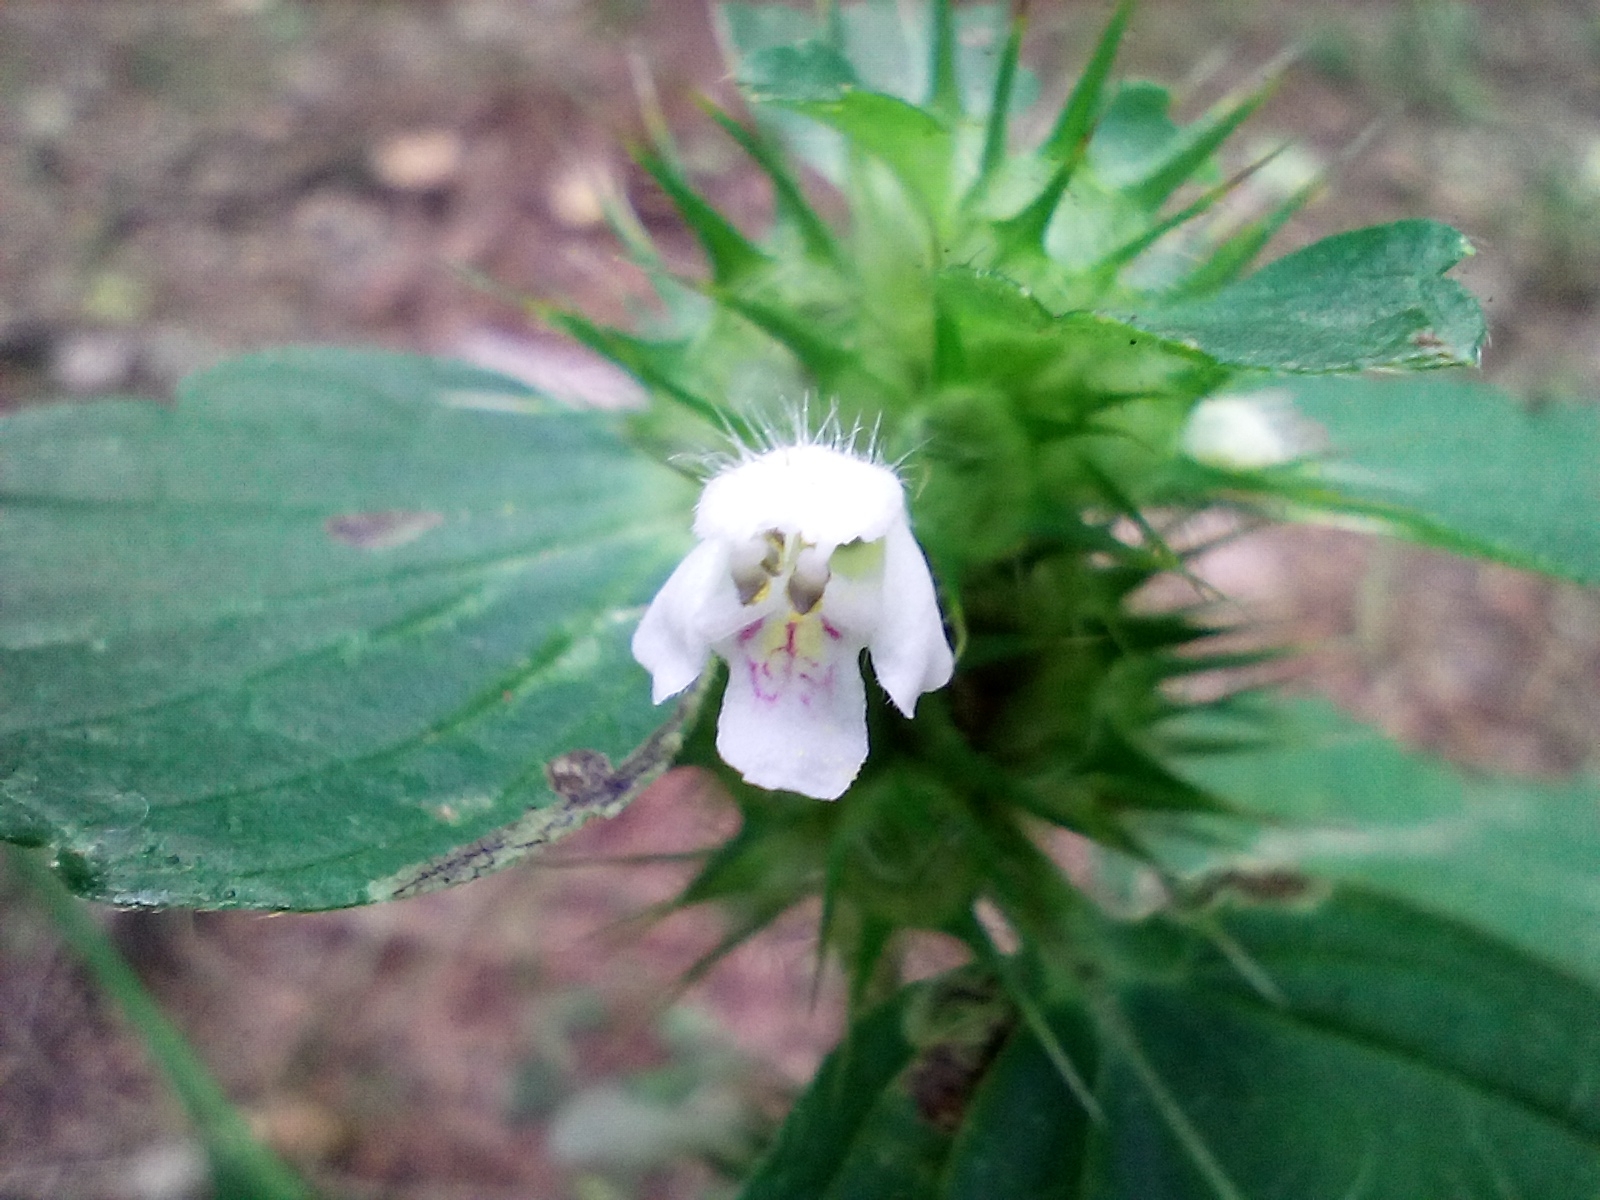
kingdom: Plantae
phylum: Tracheophyta
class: Magnoliopsida
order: Lamiales
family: Lamiaceae
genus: Galeopsis
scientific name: Galeopsis tetrahit
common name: Common hemp-nettle
